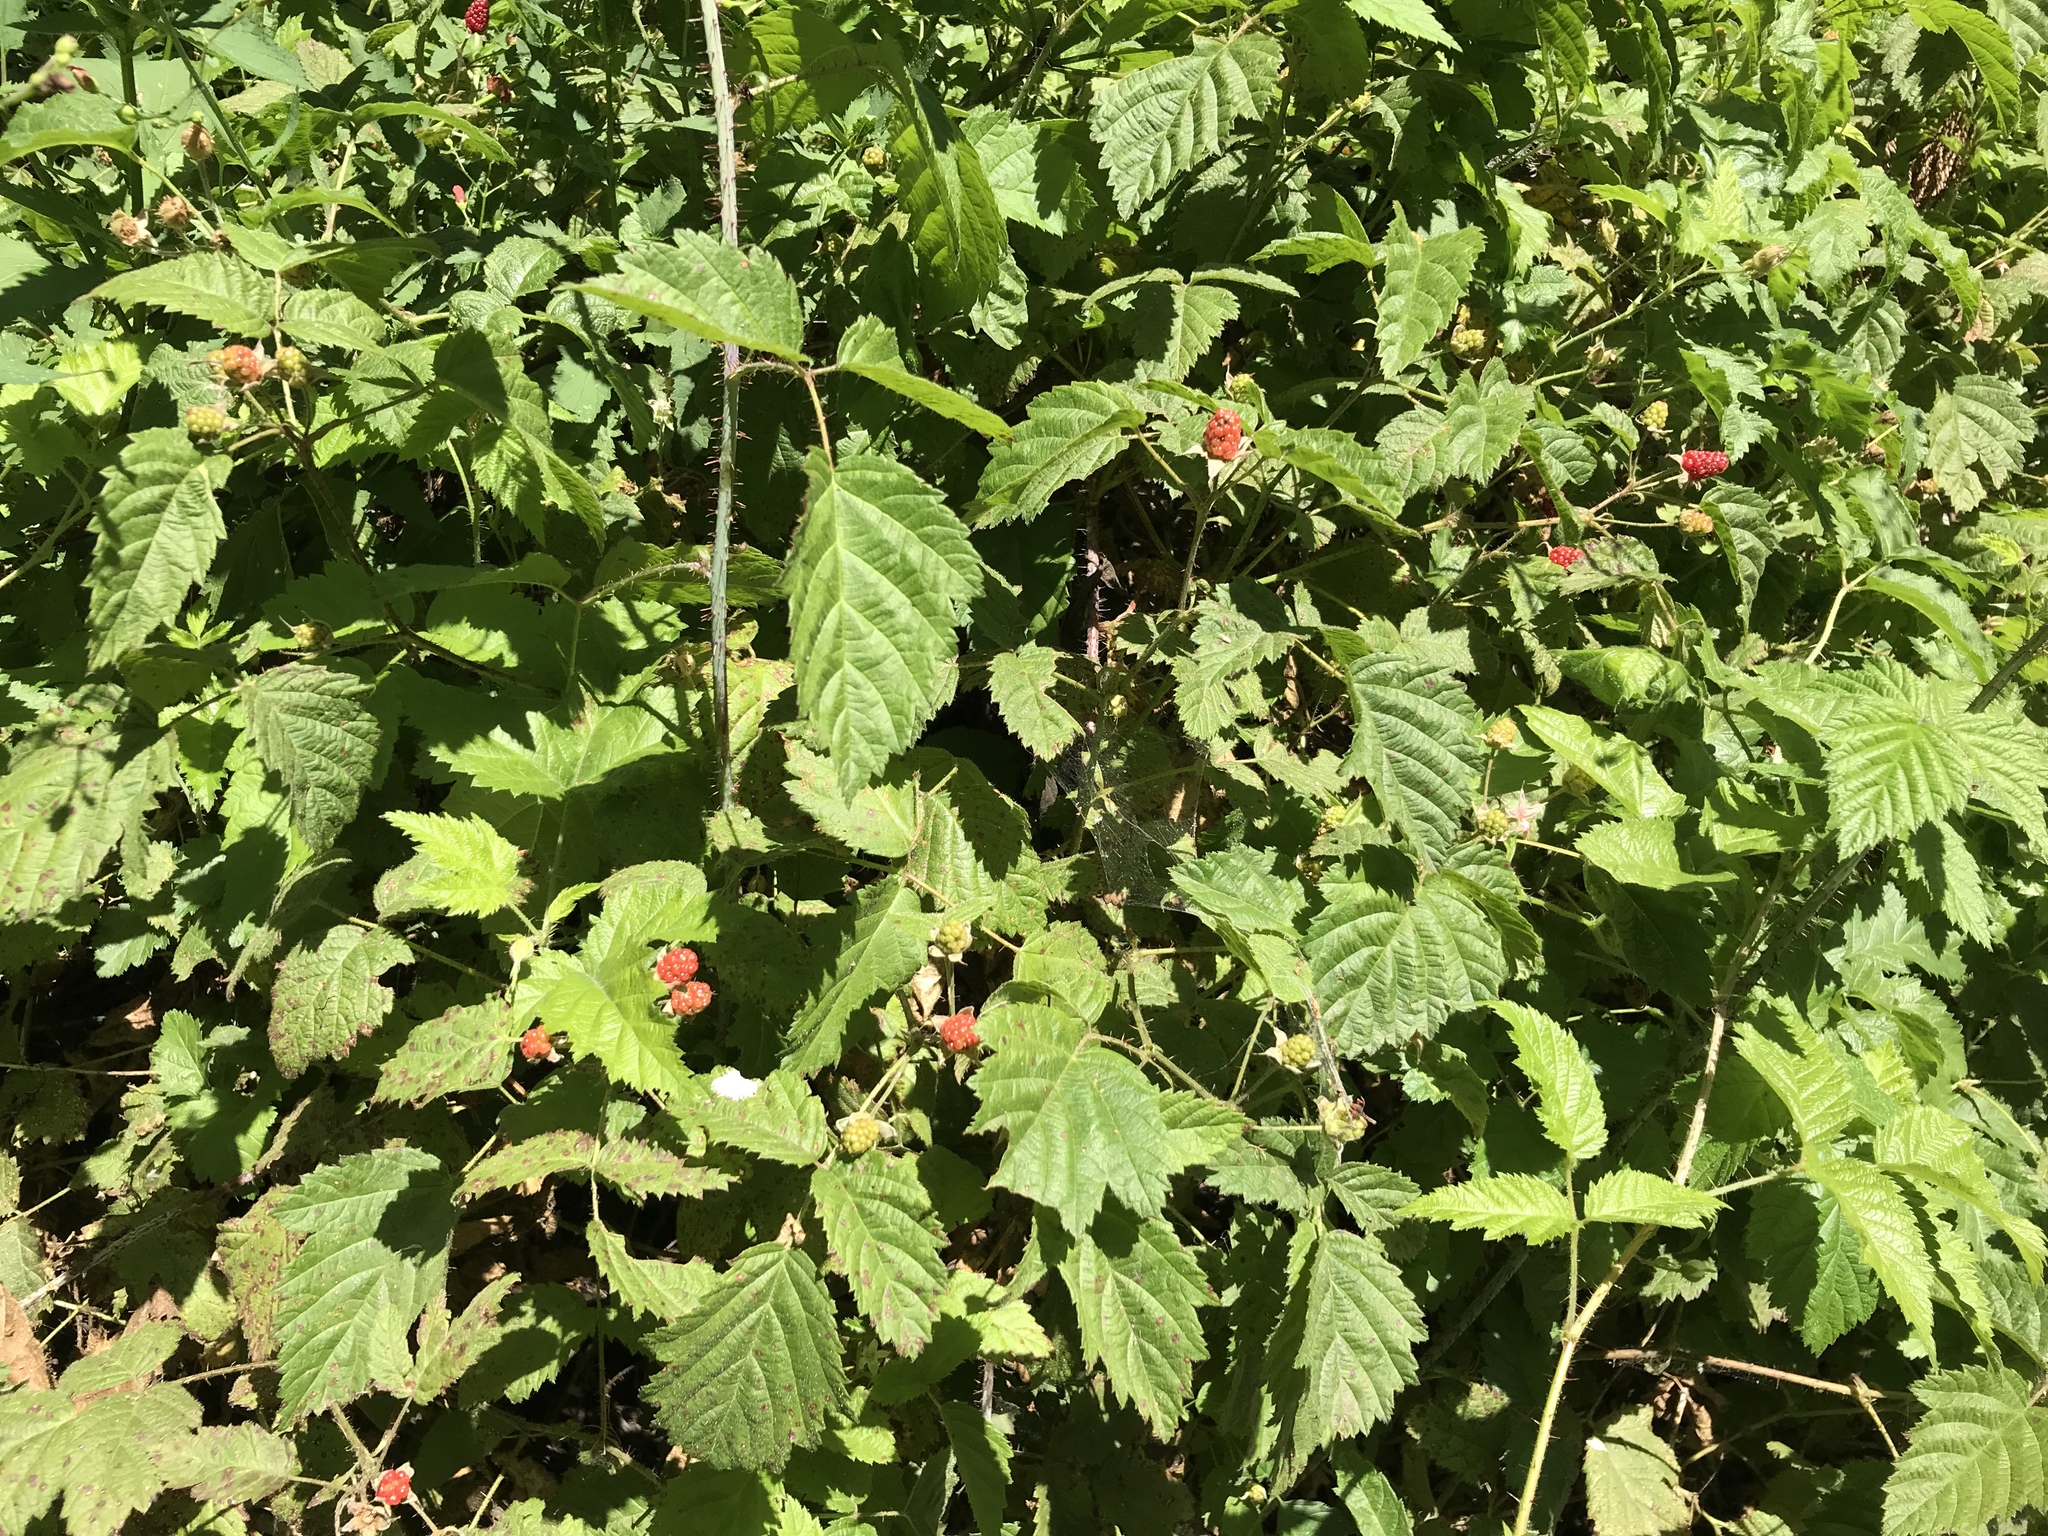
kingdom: Plantae
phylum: Tracheophyta
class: Magnoliopsida
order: Rosales
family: Rosaceae
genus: Rubus
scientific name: Rubus ursinus
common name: Pacific blackberry
